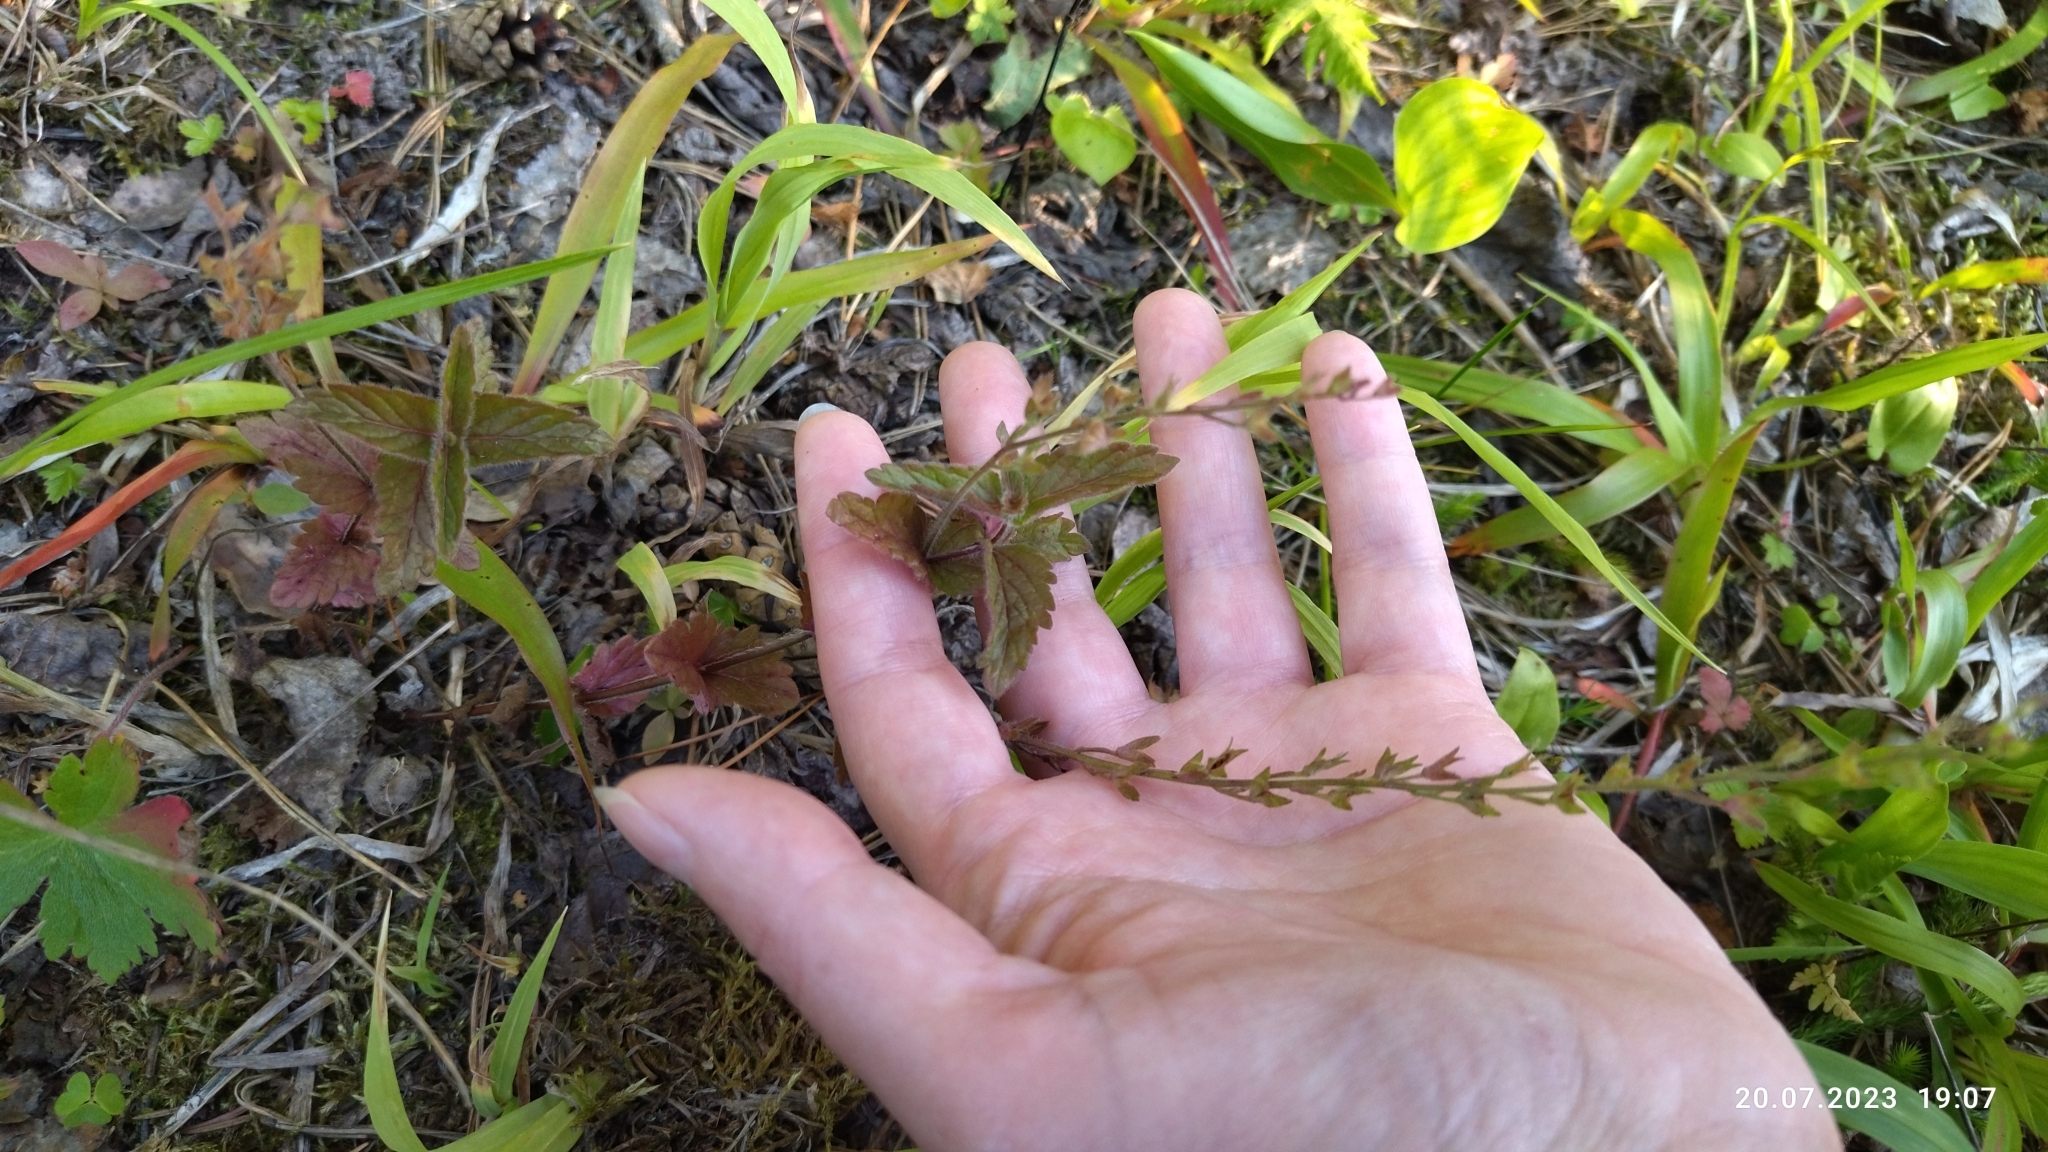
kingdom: Plantae
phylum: Tracheophyta
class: Magnoliopsida
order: Lamiales
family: Plantaginaceae
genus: Veronica
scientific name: Veronica chamaedrys
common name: Germander speedwell
